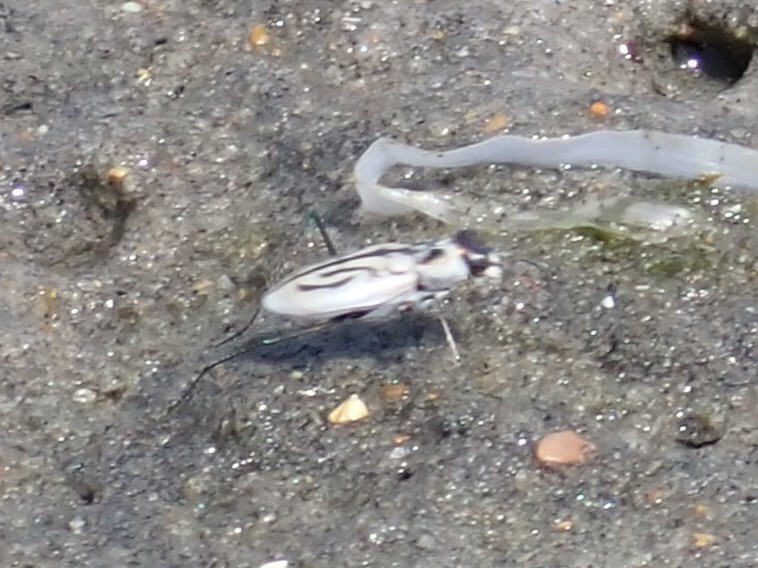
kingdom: Animalia
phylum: Arthropoda
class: Insecta
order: Coleoptera
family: Carabidae
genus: Habroscelimorpha
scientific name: Habroscelimorpha dorsalis
